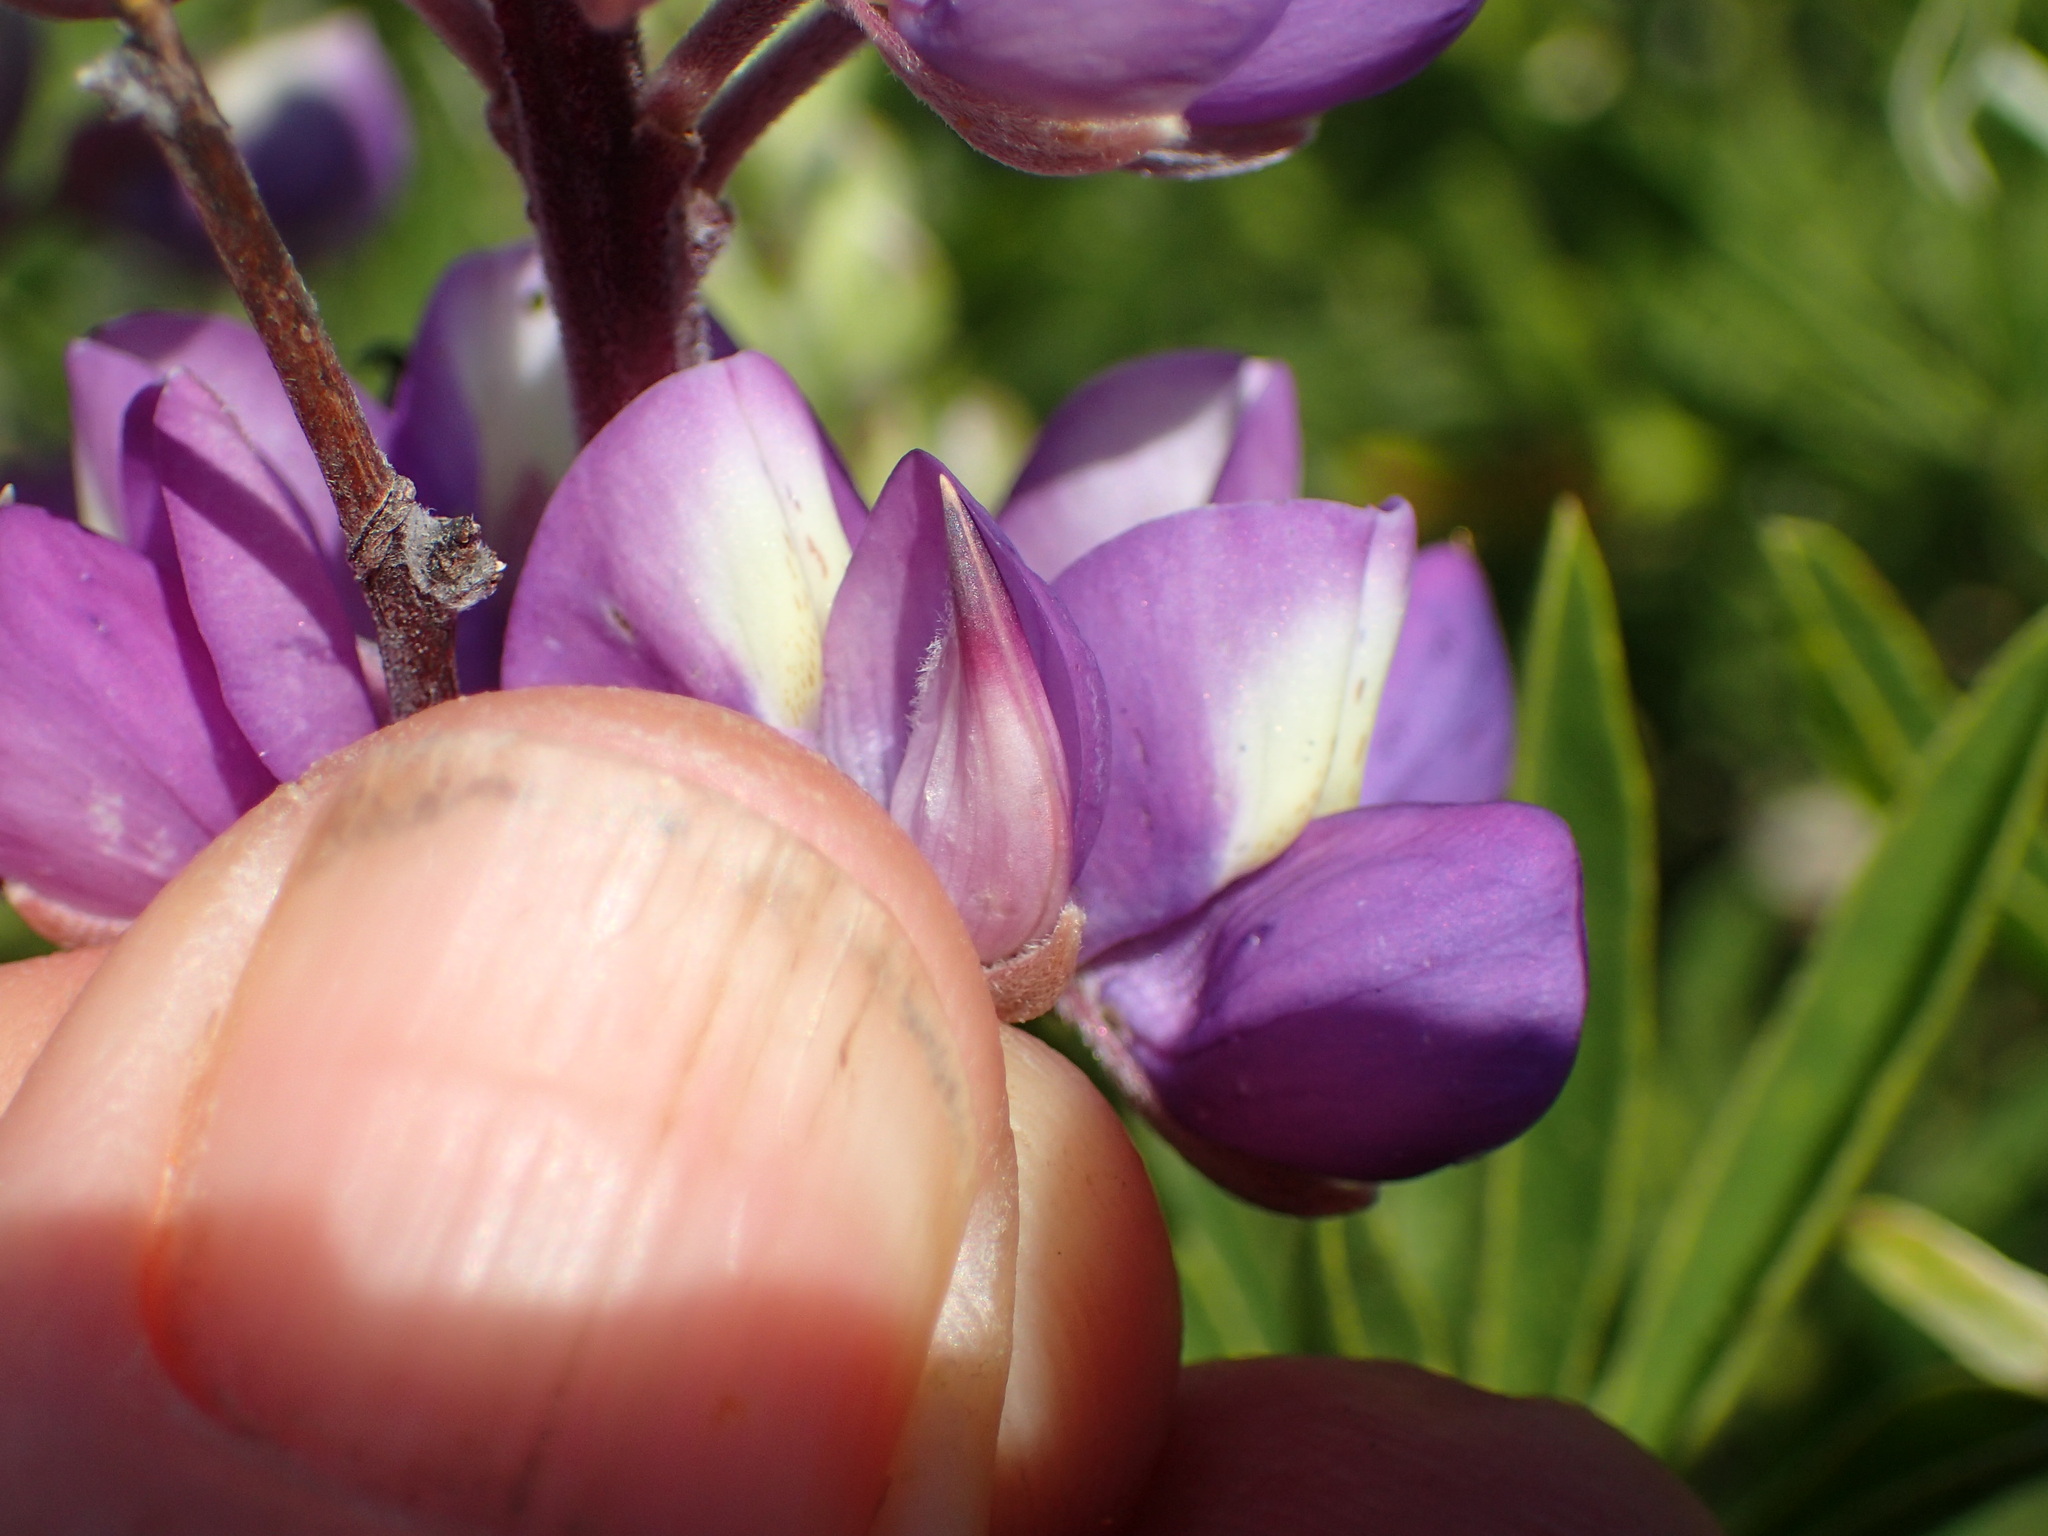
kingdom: Plantae
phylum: Tracheophyta
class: Magnoliopsida
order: Fabales
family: Fabaceae
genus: Lupinus
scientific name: Lupinus albifrons
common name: Foothill lupine
